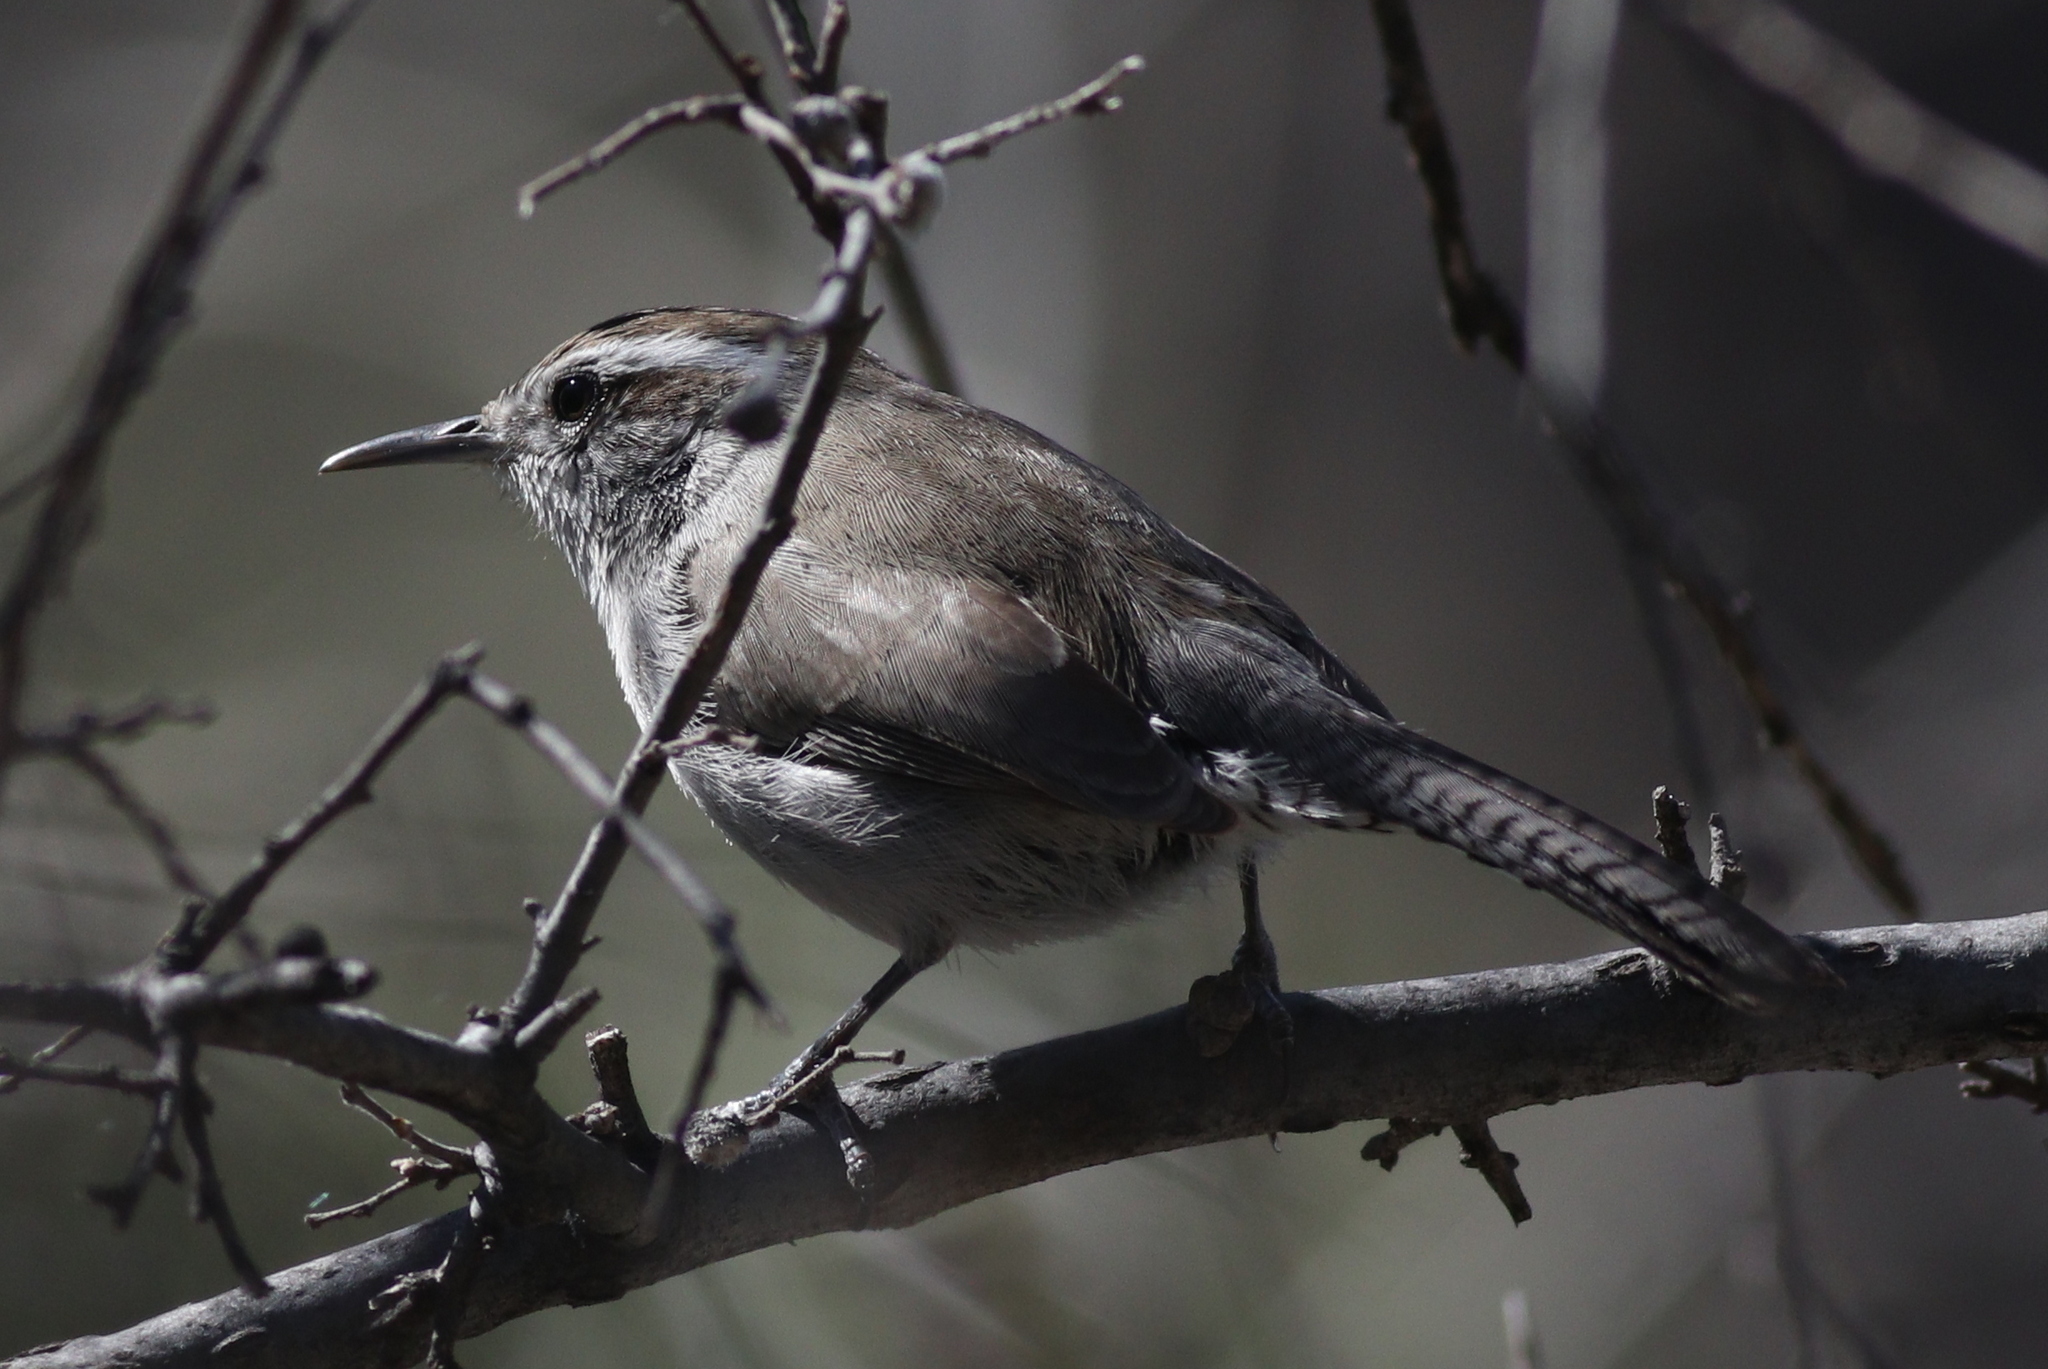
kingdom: Animalia
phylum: Chordata
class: Aves
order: Passeriformes
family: Troglodytidae
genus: Thryomanes
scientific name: Thryomanes bewickii
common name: Bewick's wren
